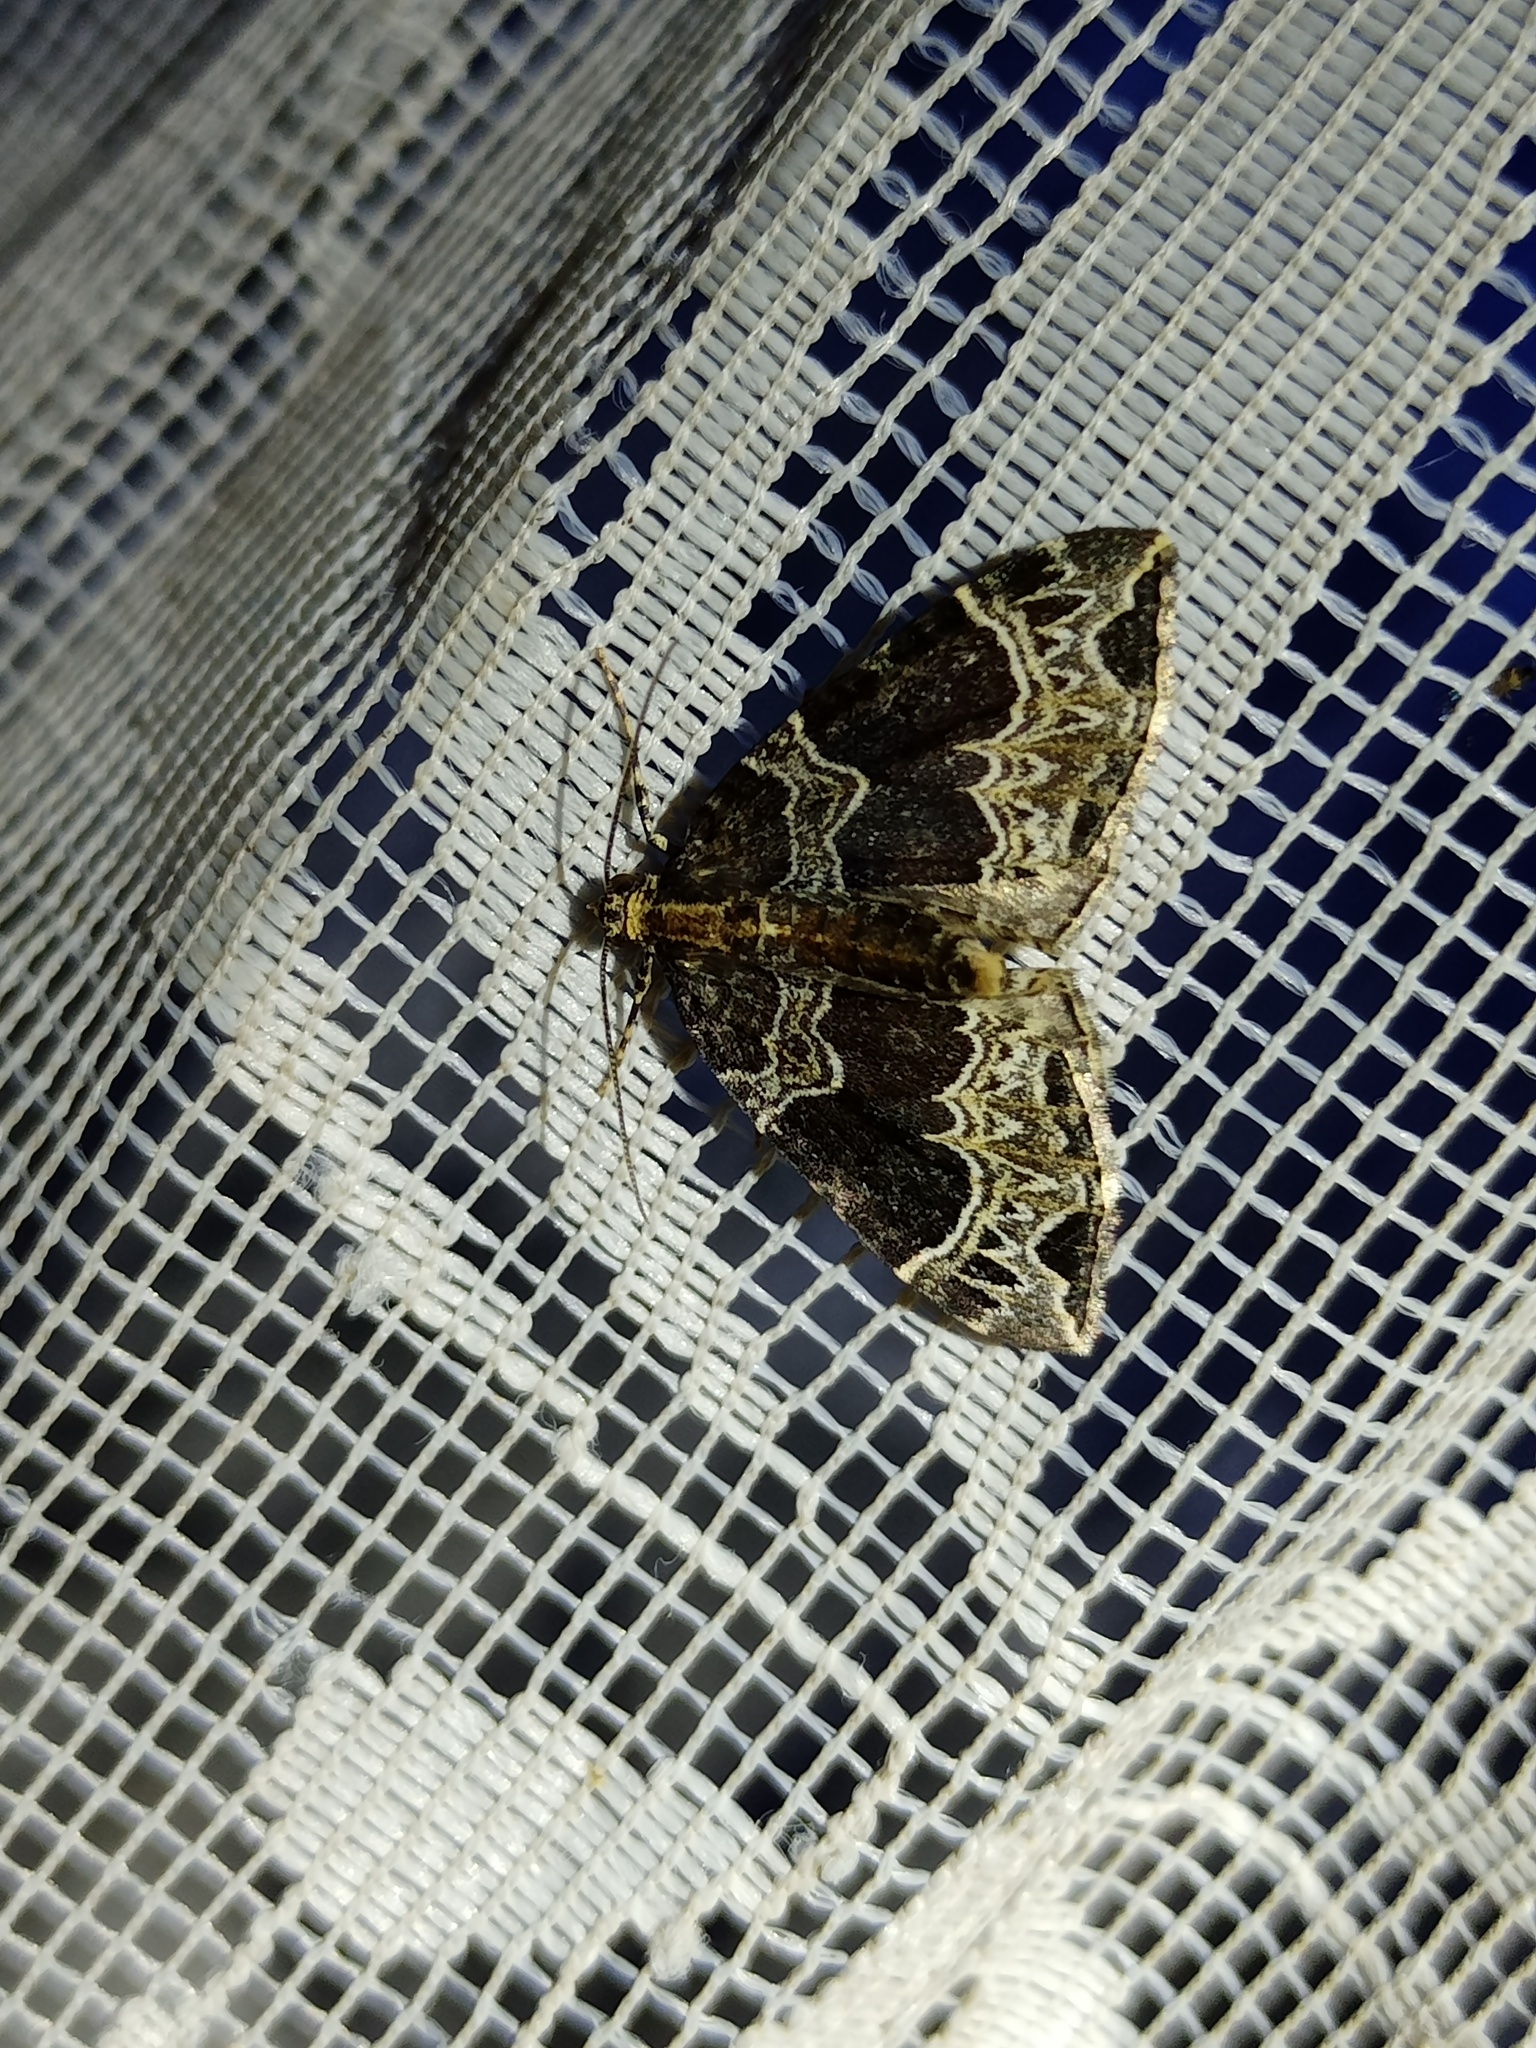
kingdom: Animalia
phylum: Arthropoda
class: Insecta
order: Lepidoptera
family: Geometridae
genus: Ecliptopera
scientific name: Ecliptopera silaceata
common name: Small phoenix
